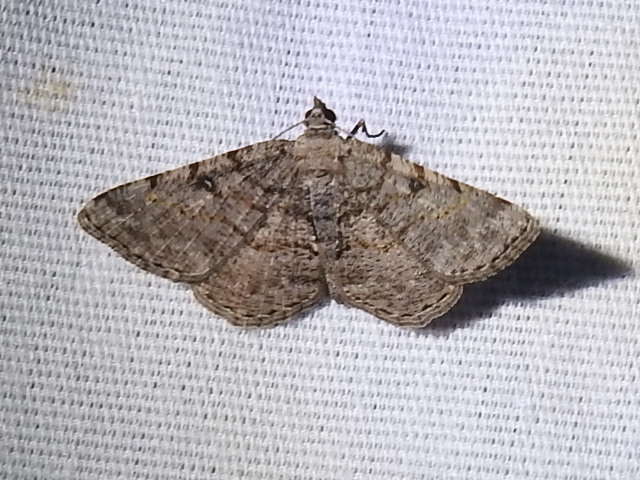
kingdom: Animalia
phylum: Arthropoda
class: Insecta
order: Lepidoptera
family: Geometridae
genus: Digrammia
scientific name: Digrammia gnophosaria
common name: Hollow-spotted angle
